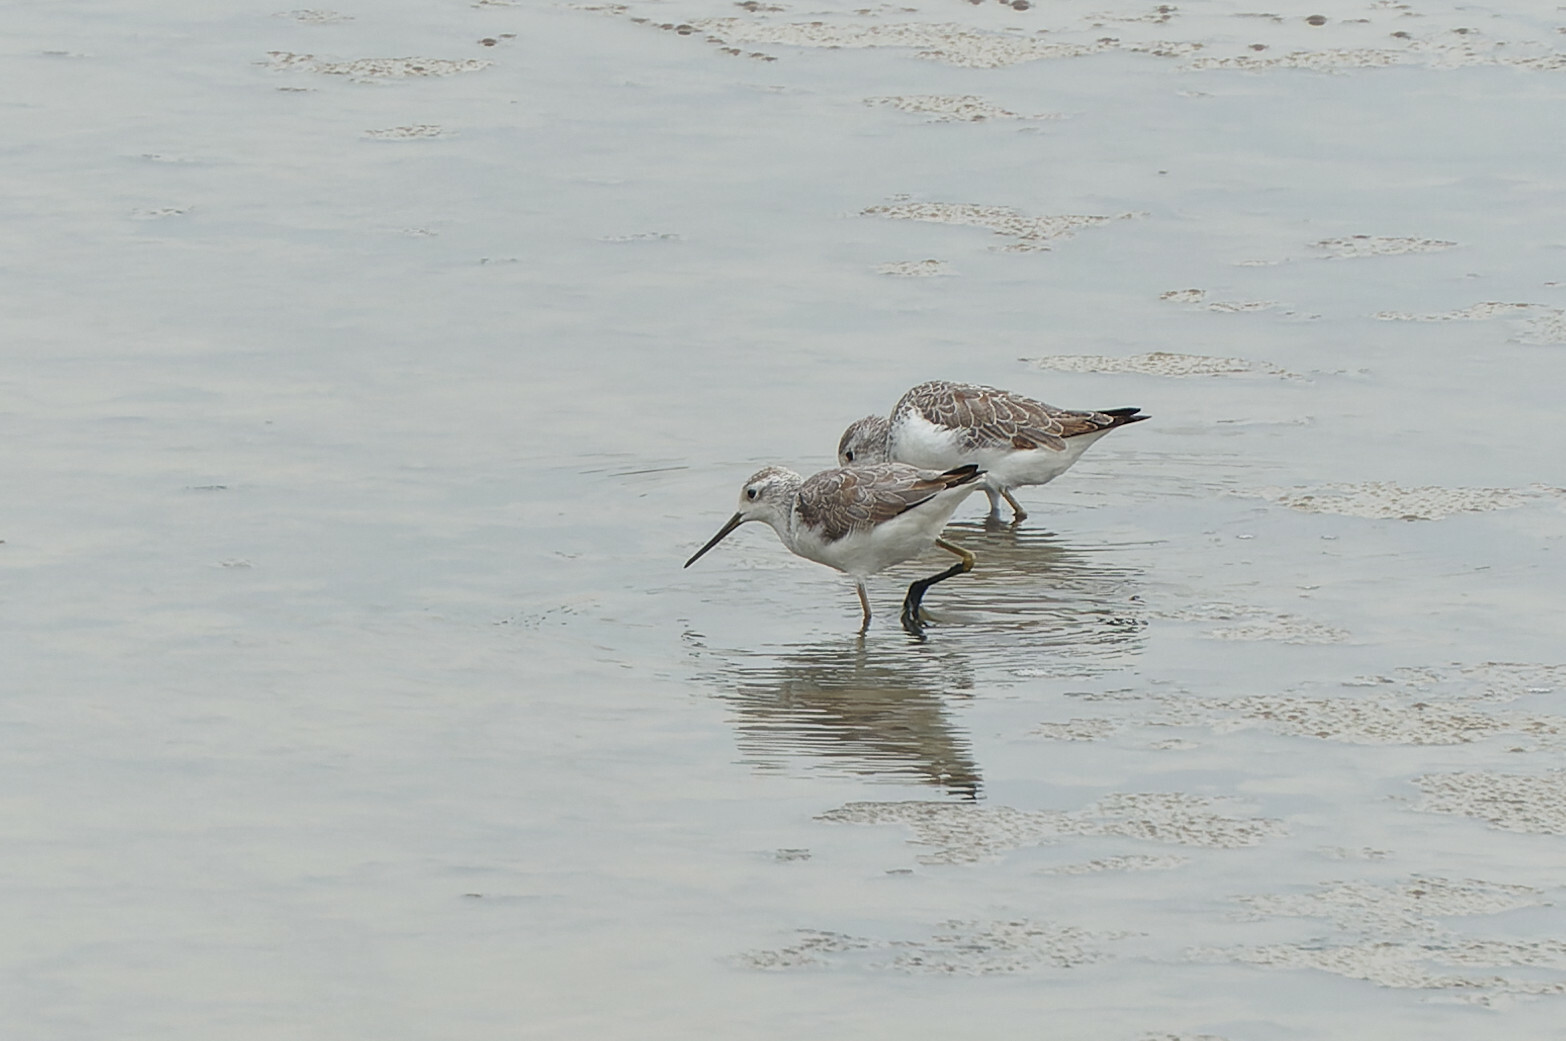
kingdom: Animalia
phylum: Chordata
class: Aves
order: Charadriiformes
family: Scolopacidae
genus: Tringa
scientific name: Tringa stagnatilis
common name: Marsh sandpiper
